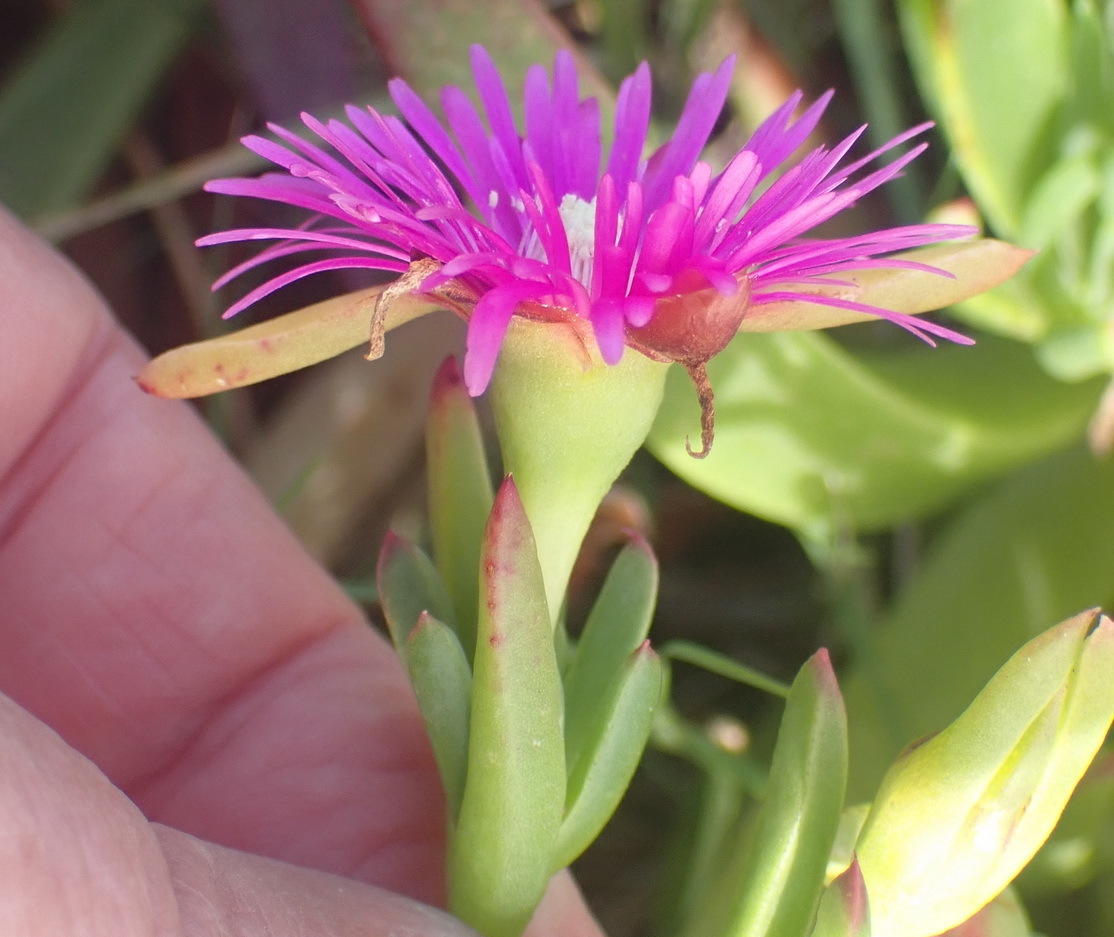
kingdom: Plantae
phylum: Tracheophyta
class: Magnoliopsida
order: Caryophyllales
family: Aizoaceae
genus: Ruschia
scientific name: Ruschia duthiae
